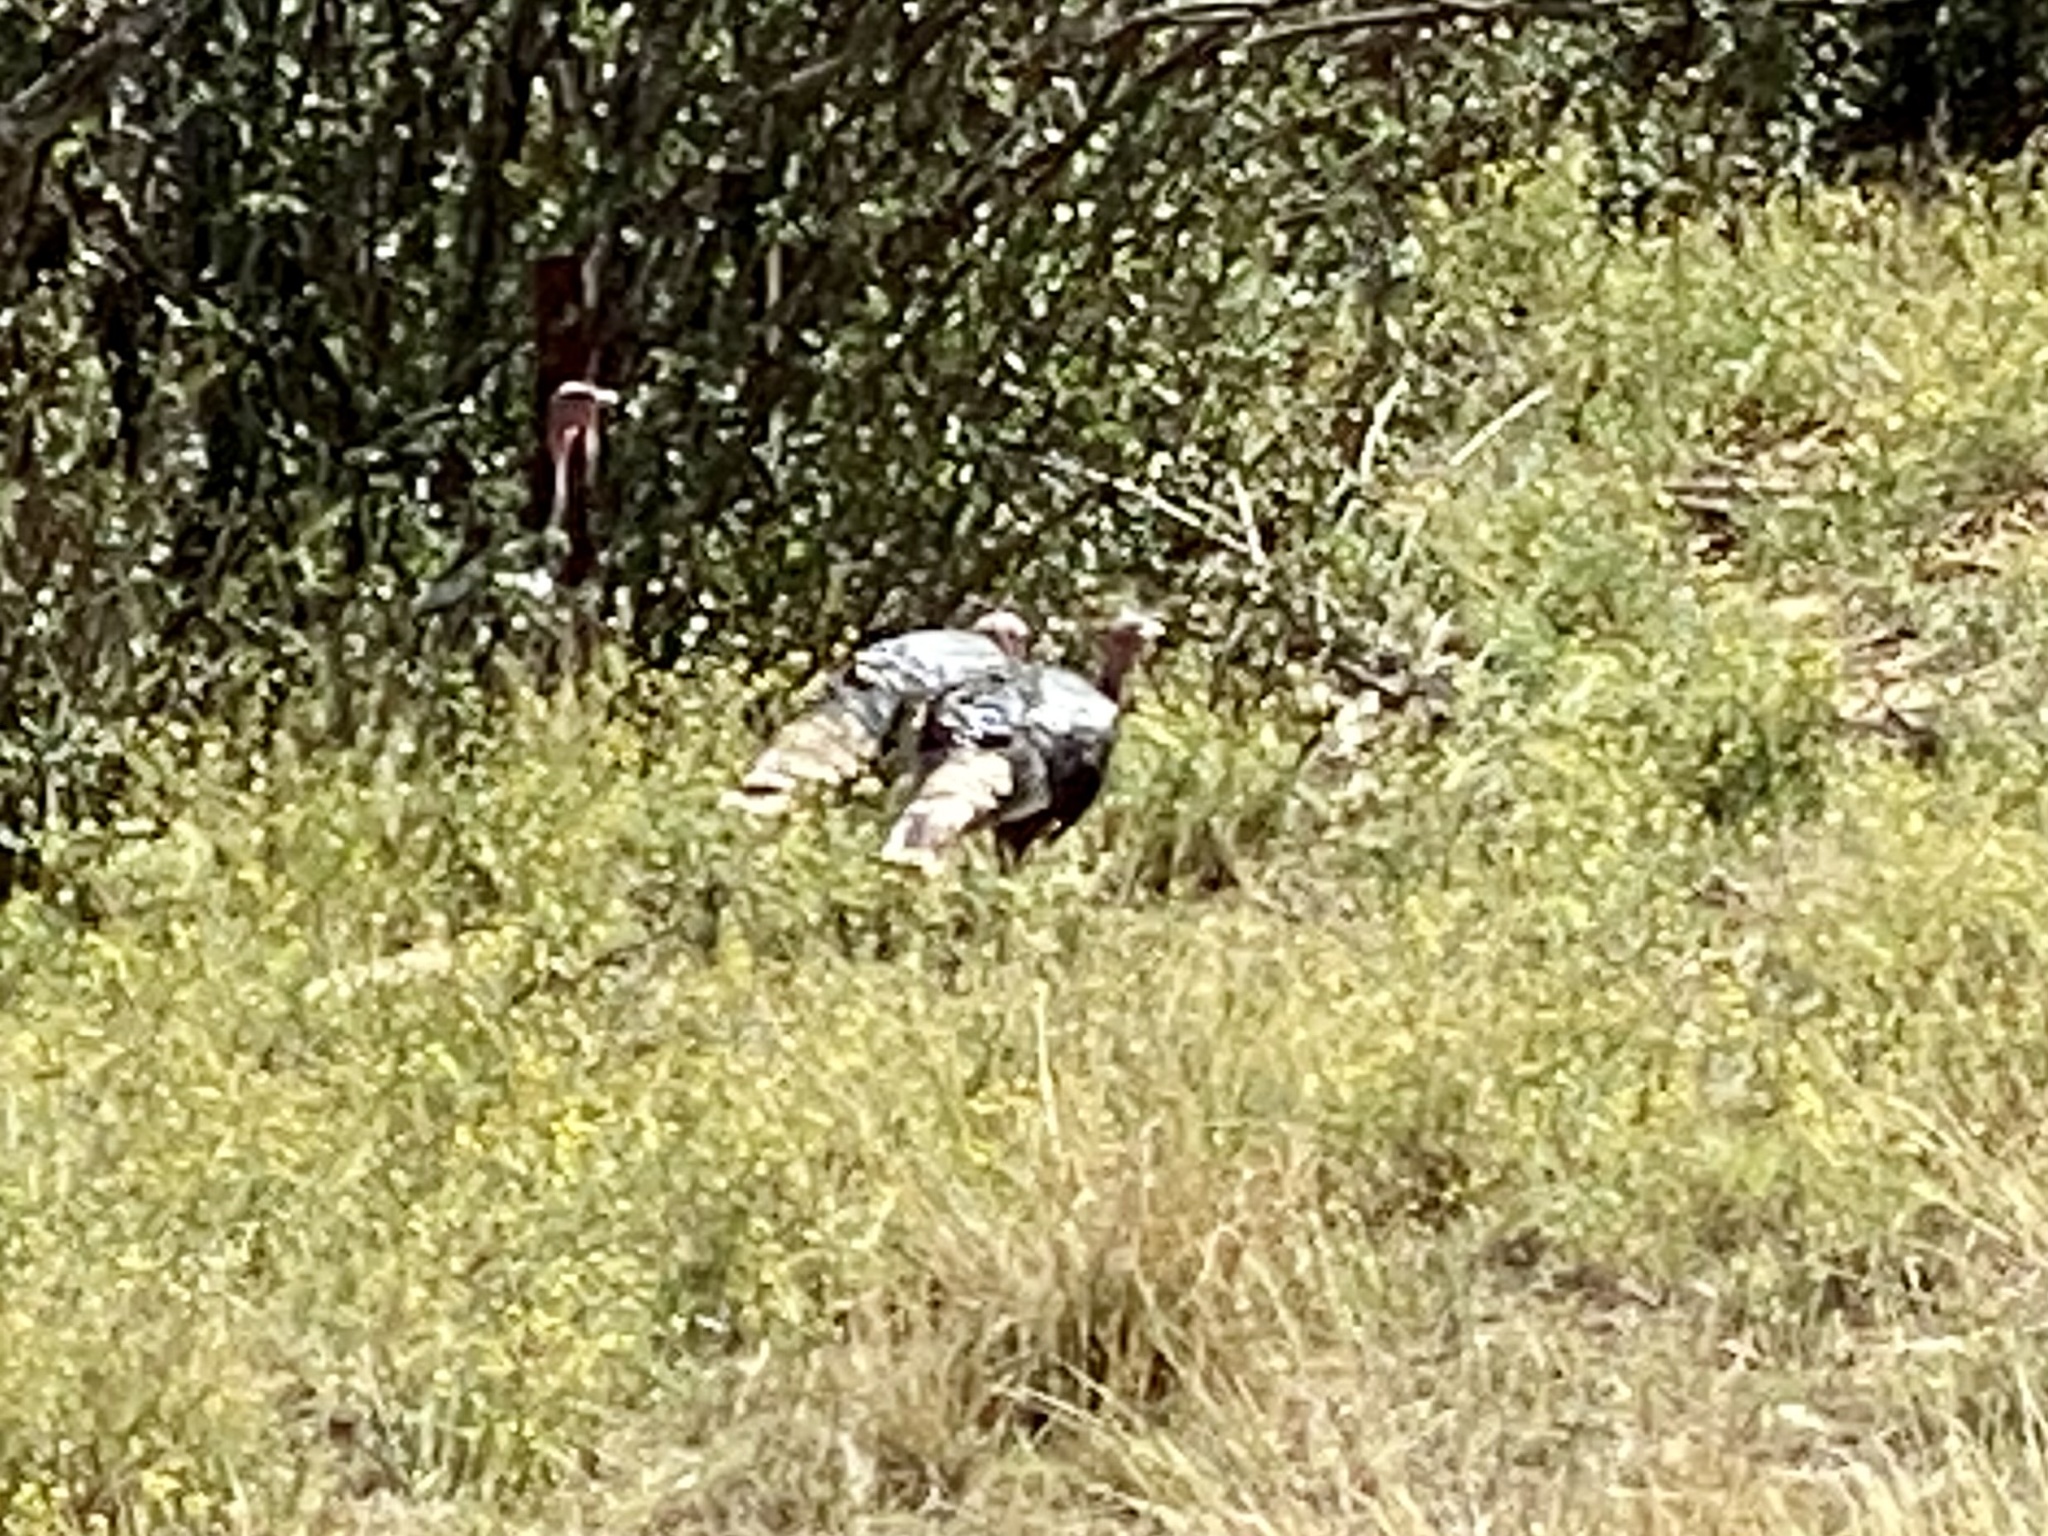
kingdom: Animalia
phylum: Chordata
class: Aves
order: Galliformes
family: Phasianidae
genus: Meleagris
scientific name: Meleagris gallopavo
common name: Wild turkey
